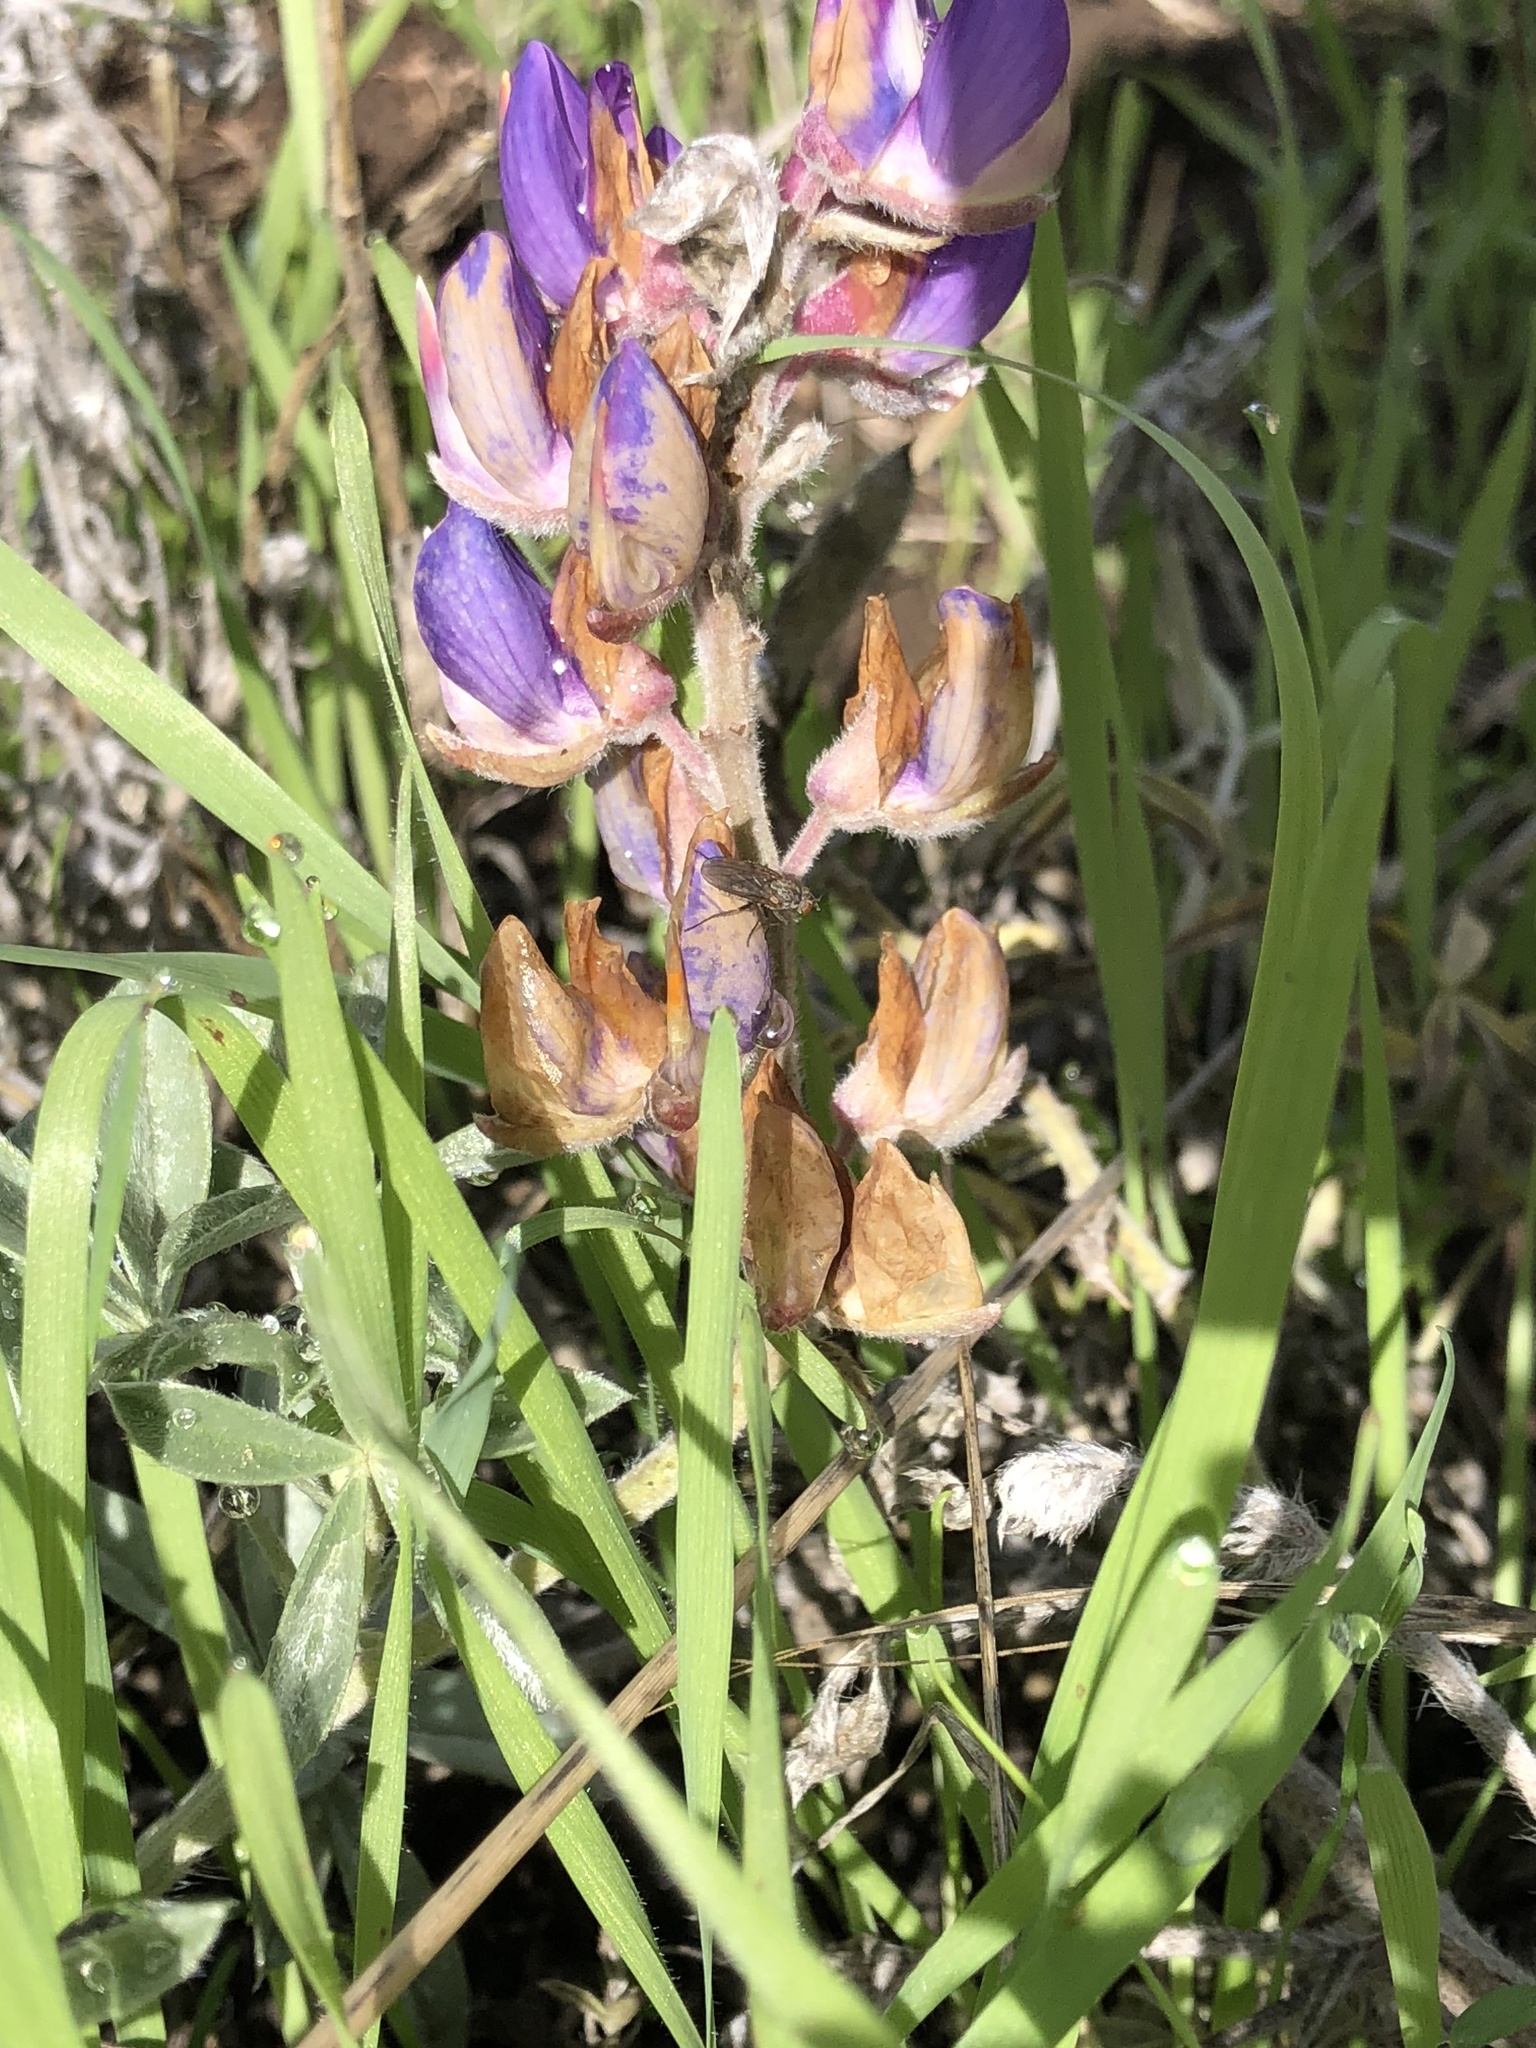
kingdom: Plantae
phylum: Tracheophyta
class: Magnoliopsida
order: Fabales
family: Fabaceae
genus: Lupinus
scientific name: Lupinus formosus
